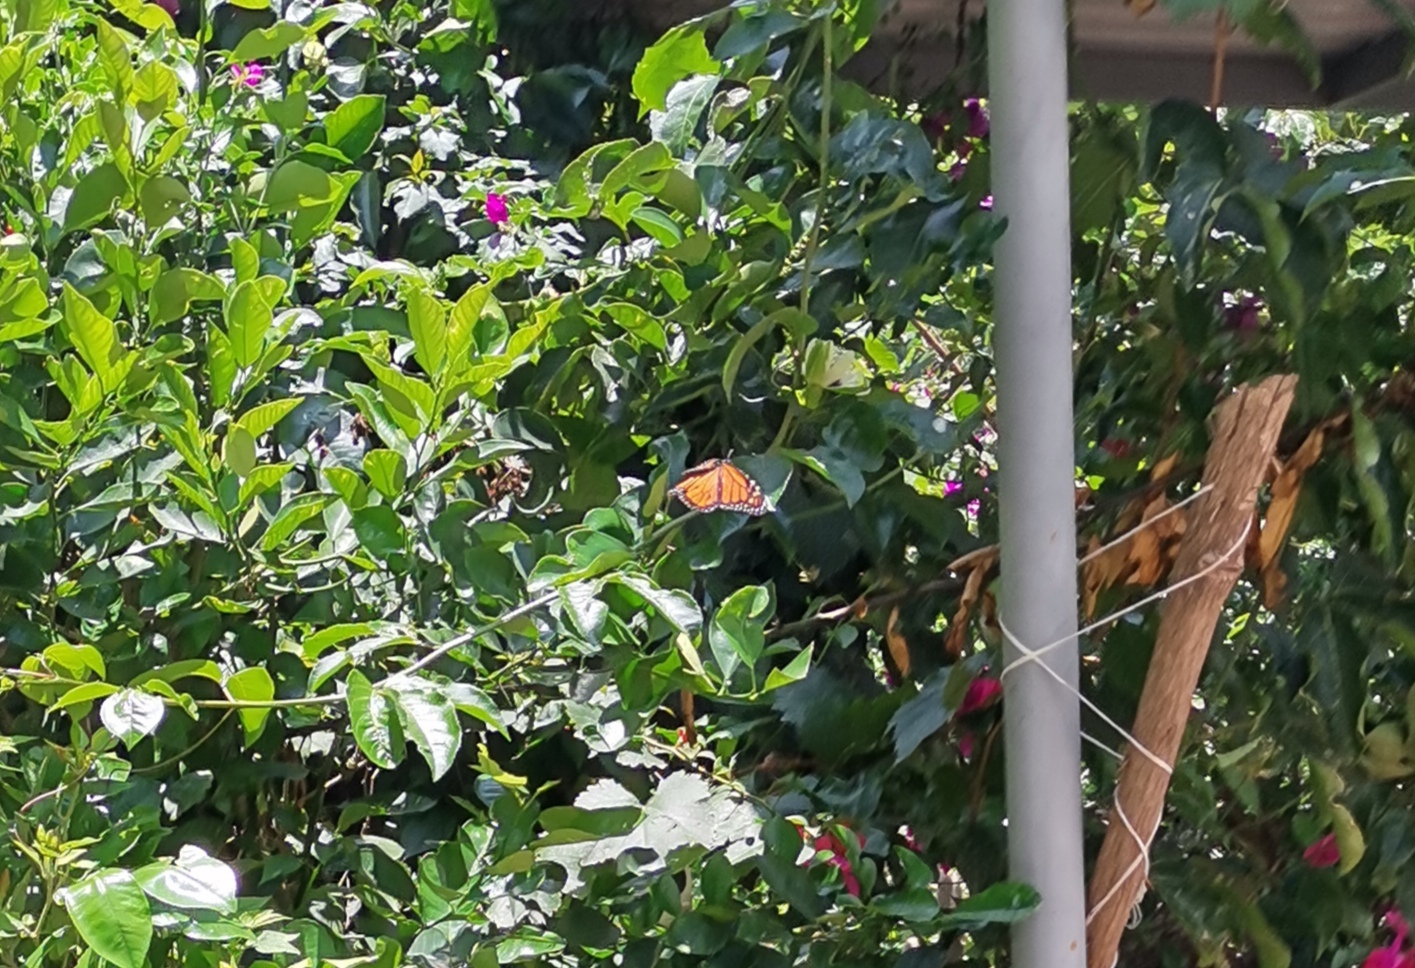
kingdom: Animalia
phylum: Arthropoda
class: Insecta
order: Lepidoptera
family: Nymphalidae
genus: Danaus
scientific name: Danaus plexippus
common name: Monarch
